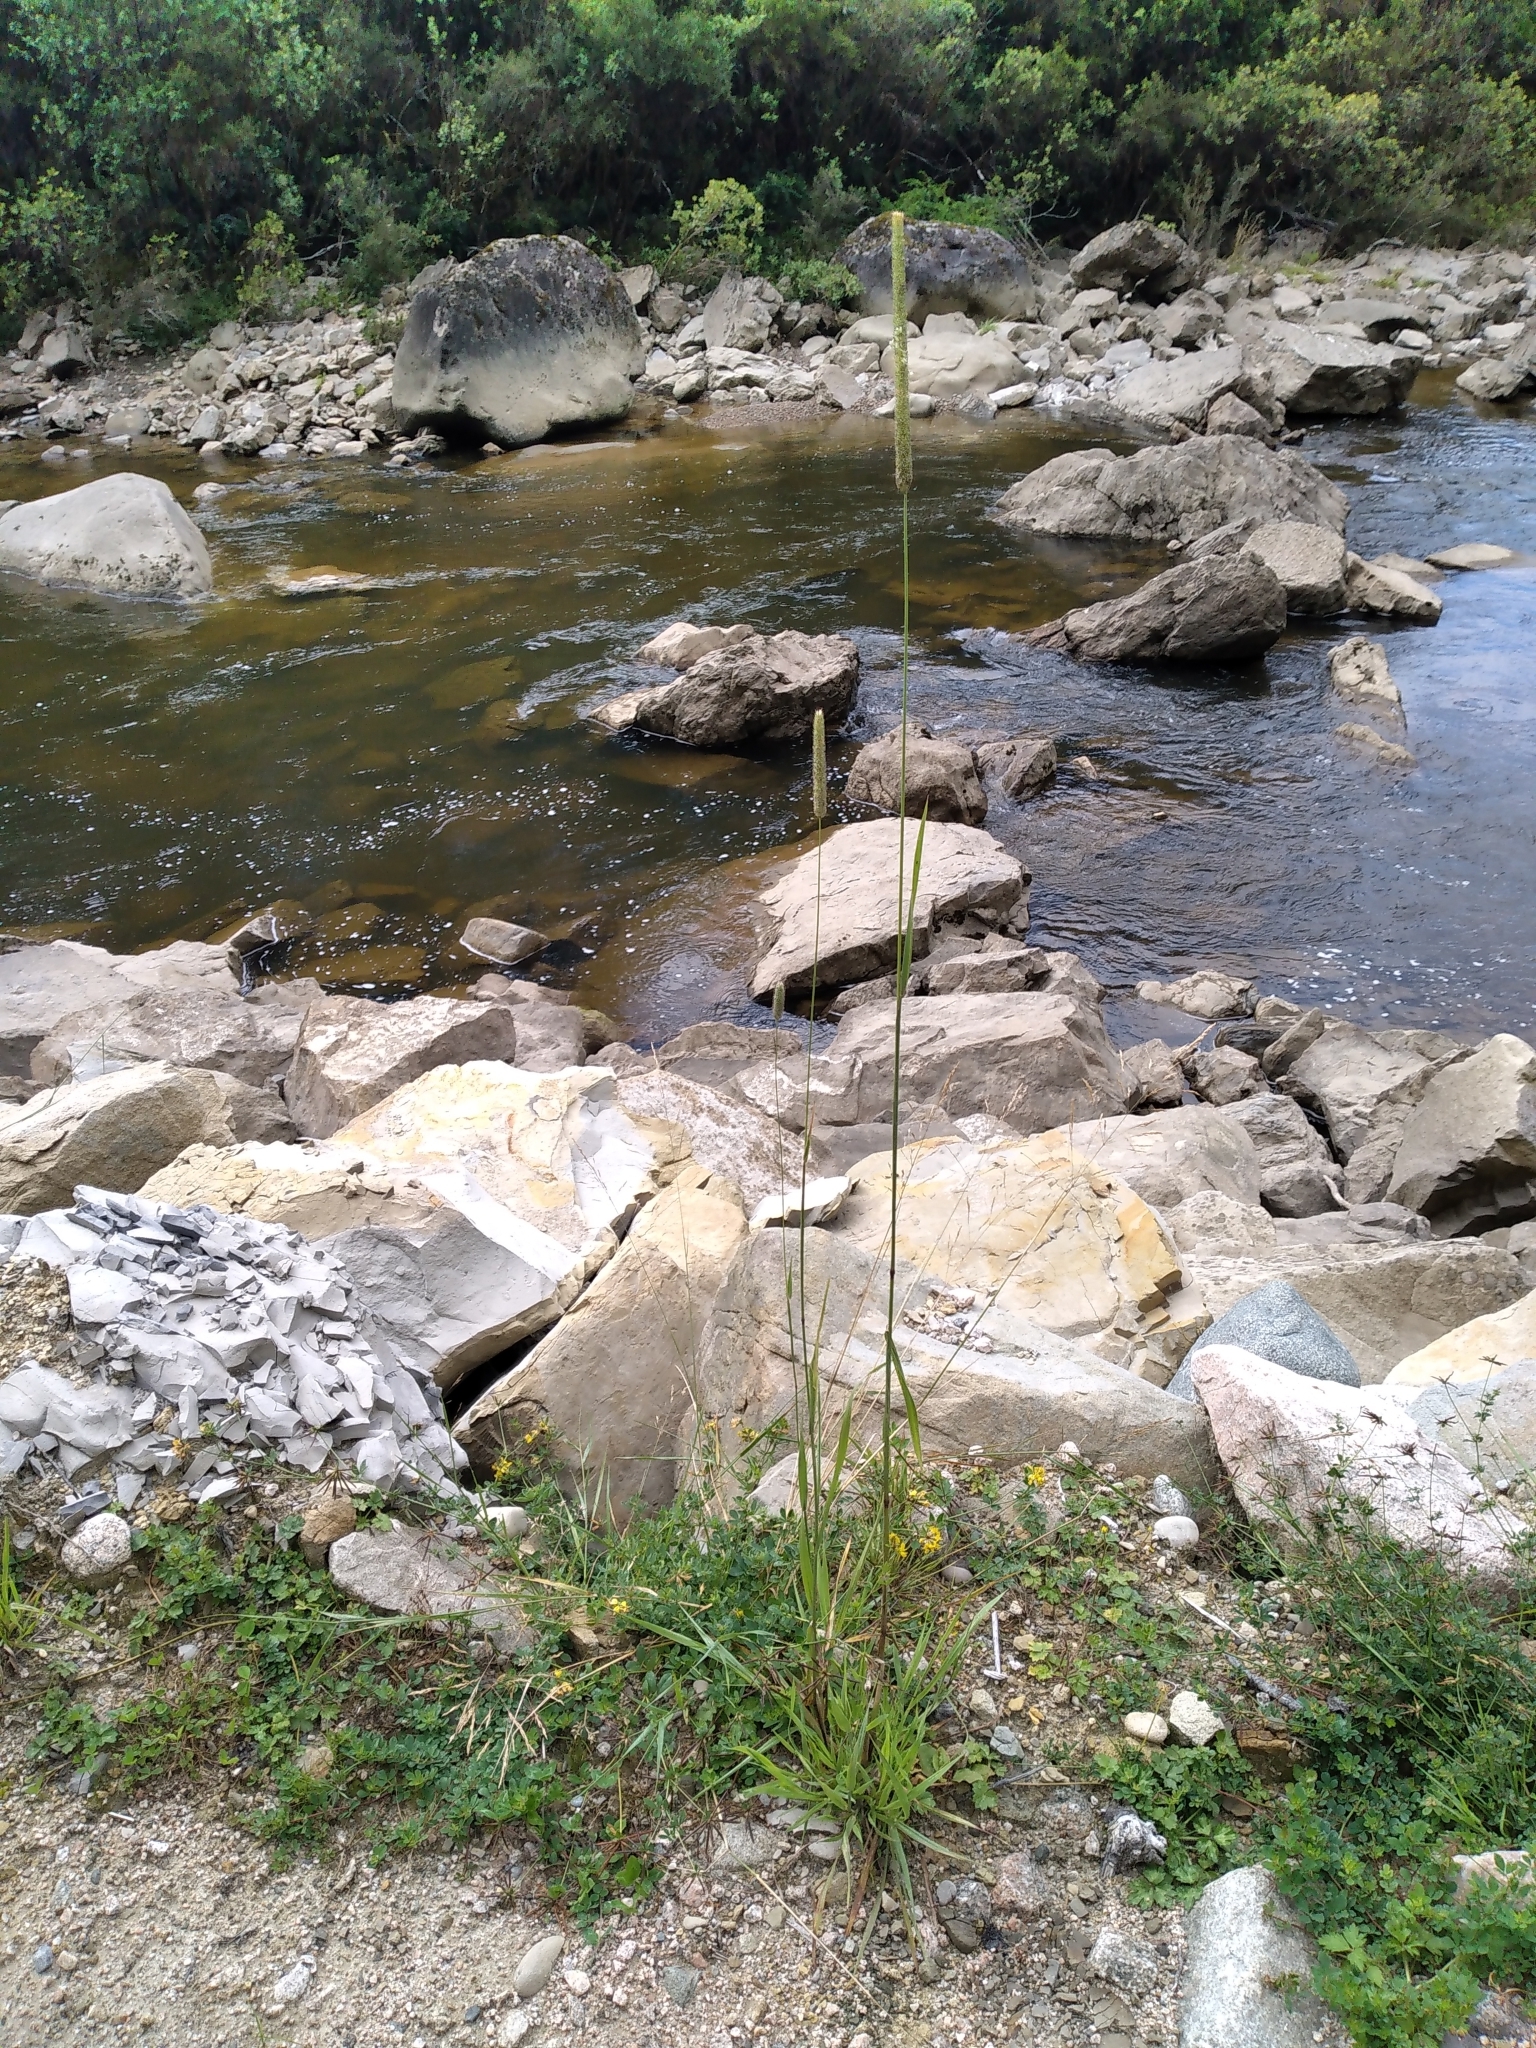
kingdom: Plantae
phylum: Tracheophyta
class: Liliopsida
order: Poales
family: Poaceae
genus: Phleum
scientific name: Phleum pratense
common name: Timothy grass
